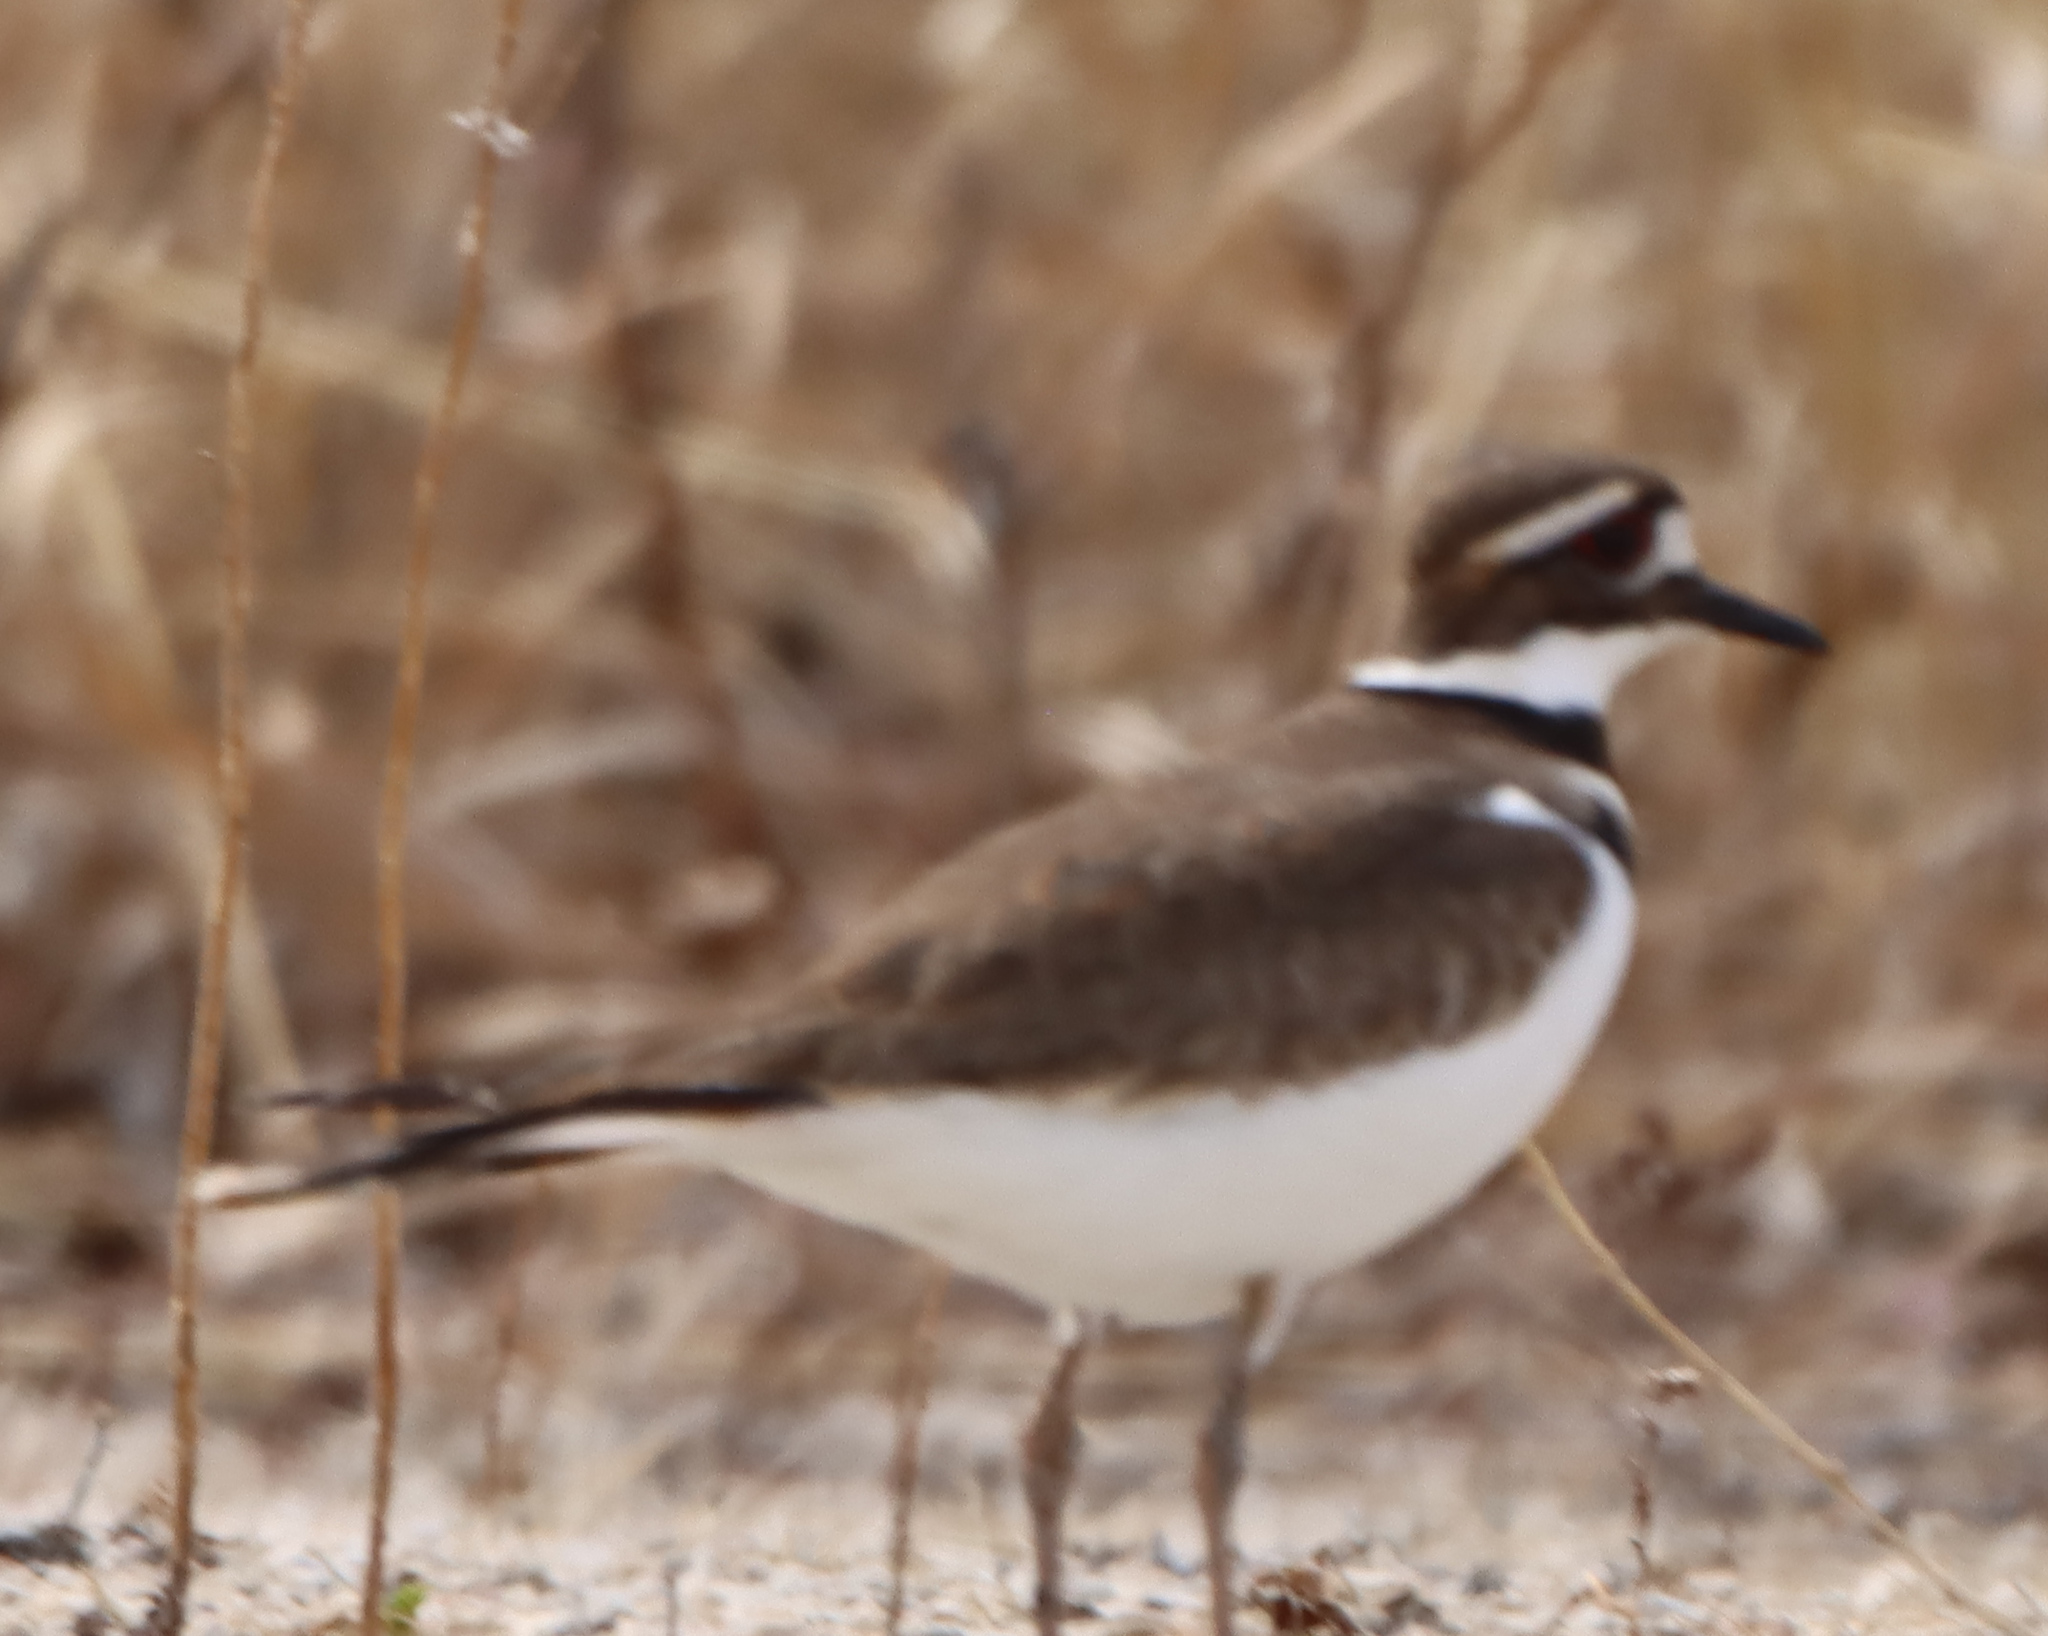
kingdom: Animalia
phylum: Chordata
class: Aves
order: Charadriiformes
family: Charadriidae
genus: Charadrius
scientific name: Charadrius vociferus
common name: Killdeer
